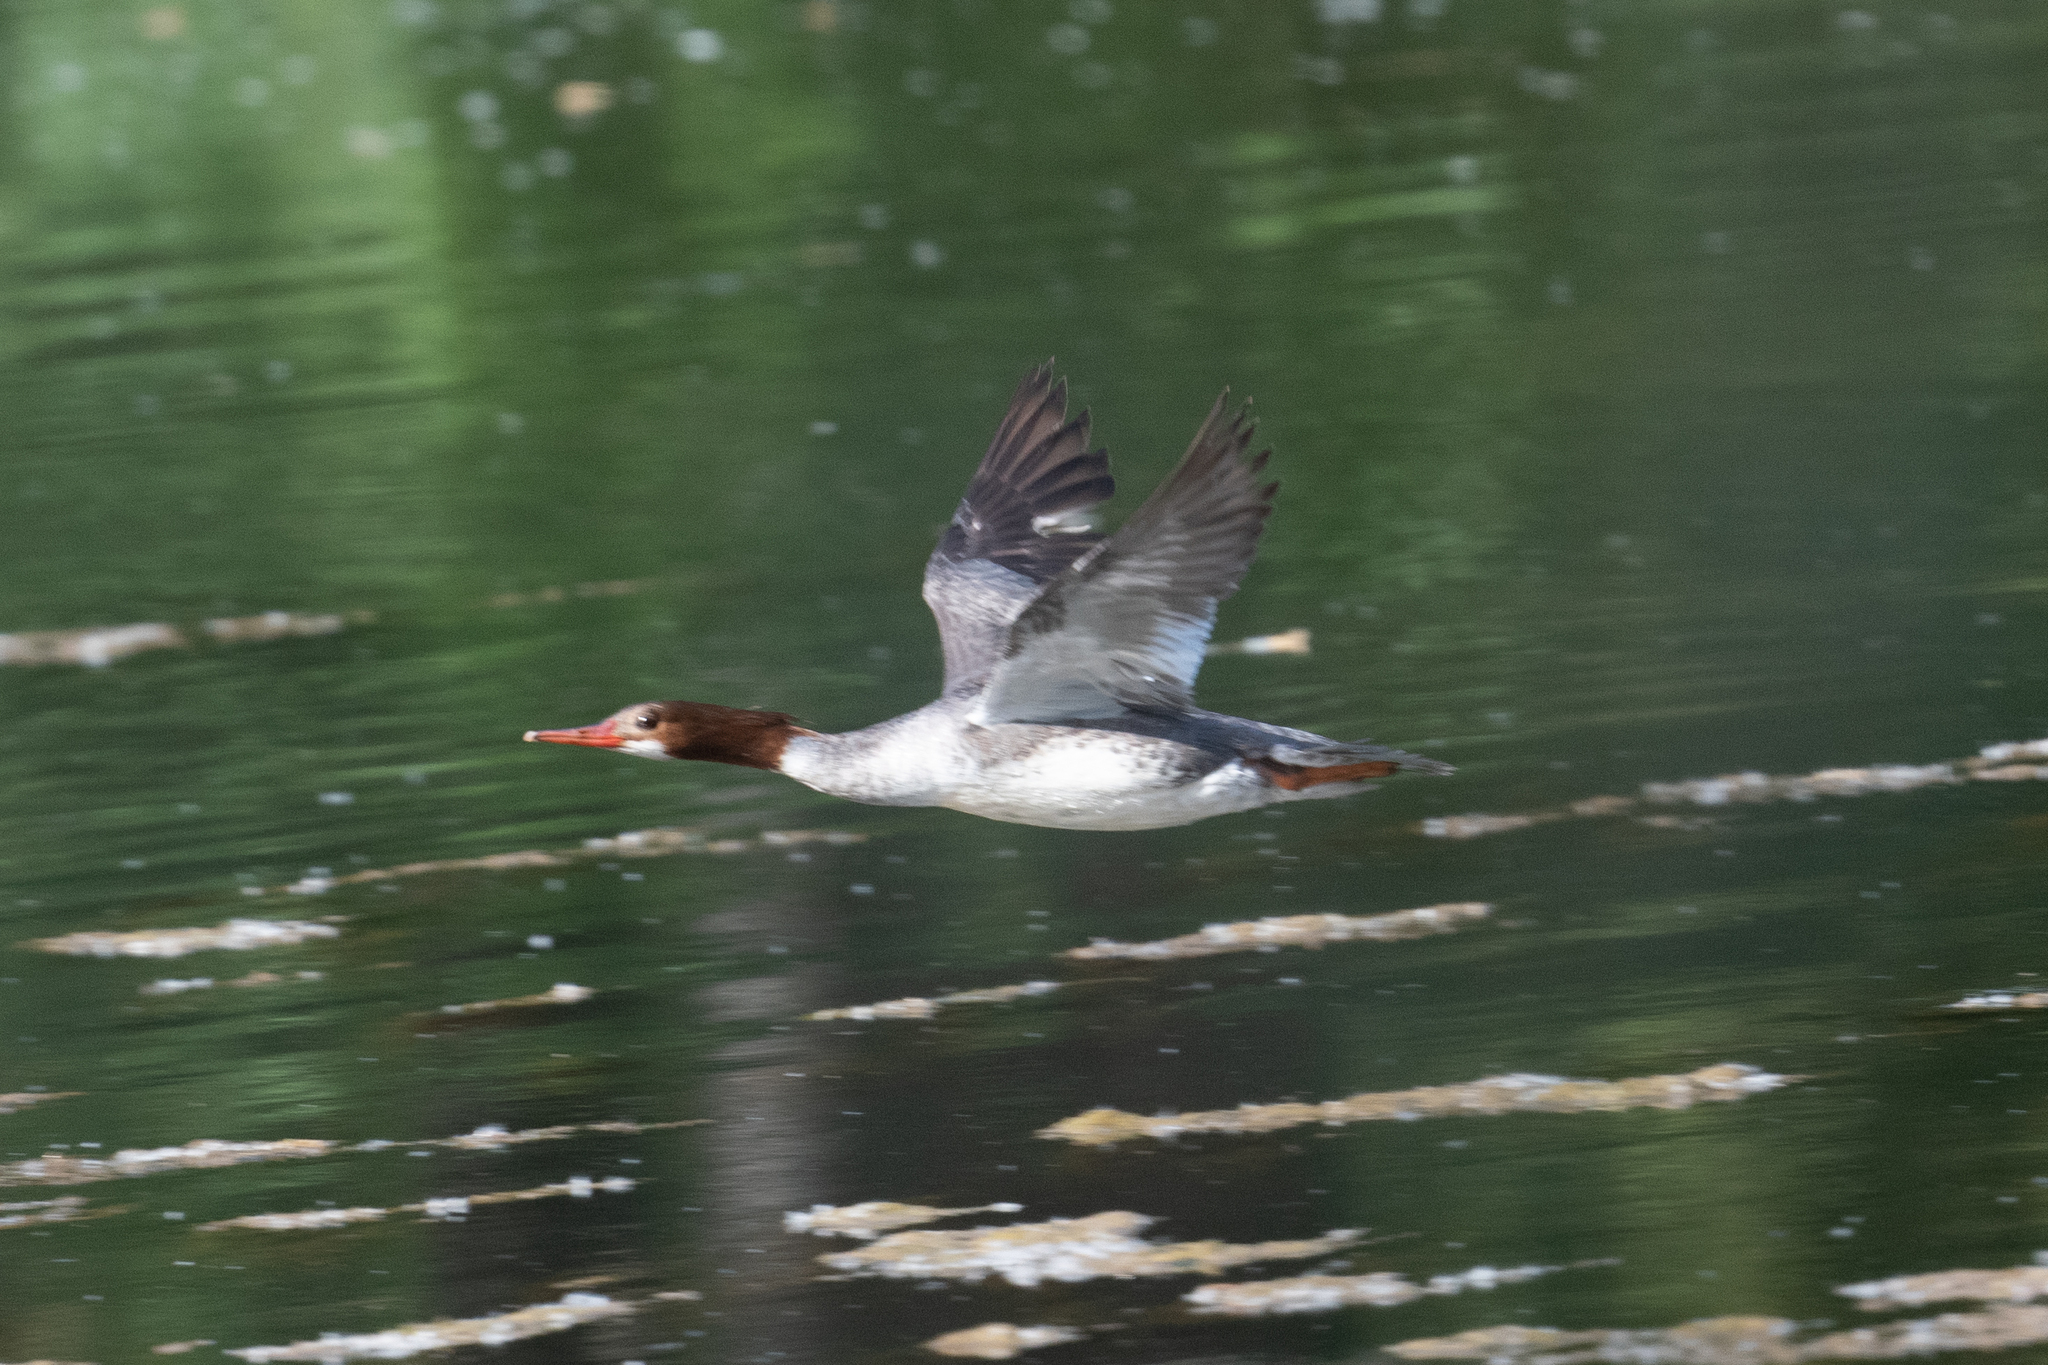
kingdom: Animalia
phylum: Chordata
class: Aves
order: Anseriformes
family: Anatidae
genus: Mergus
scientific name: Mergus merganser
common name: Common merganser
